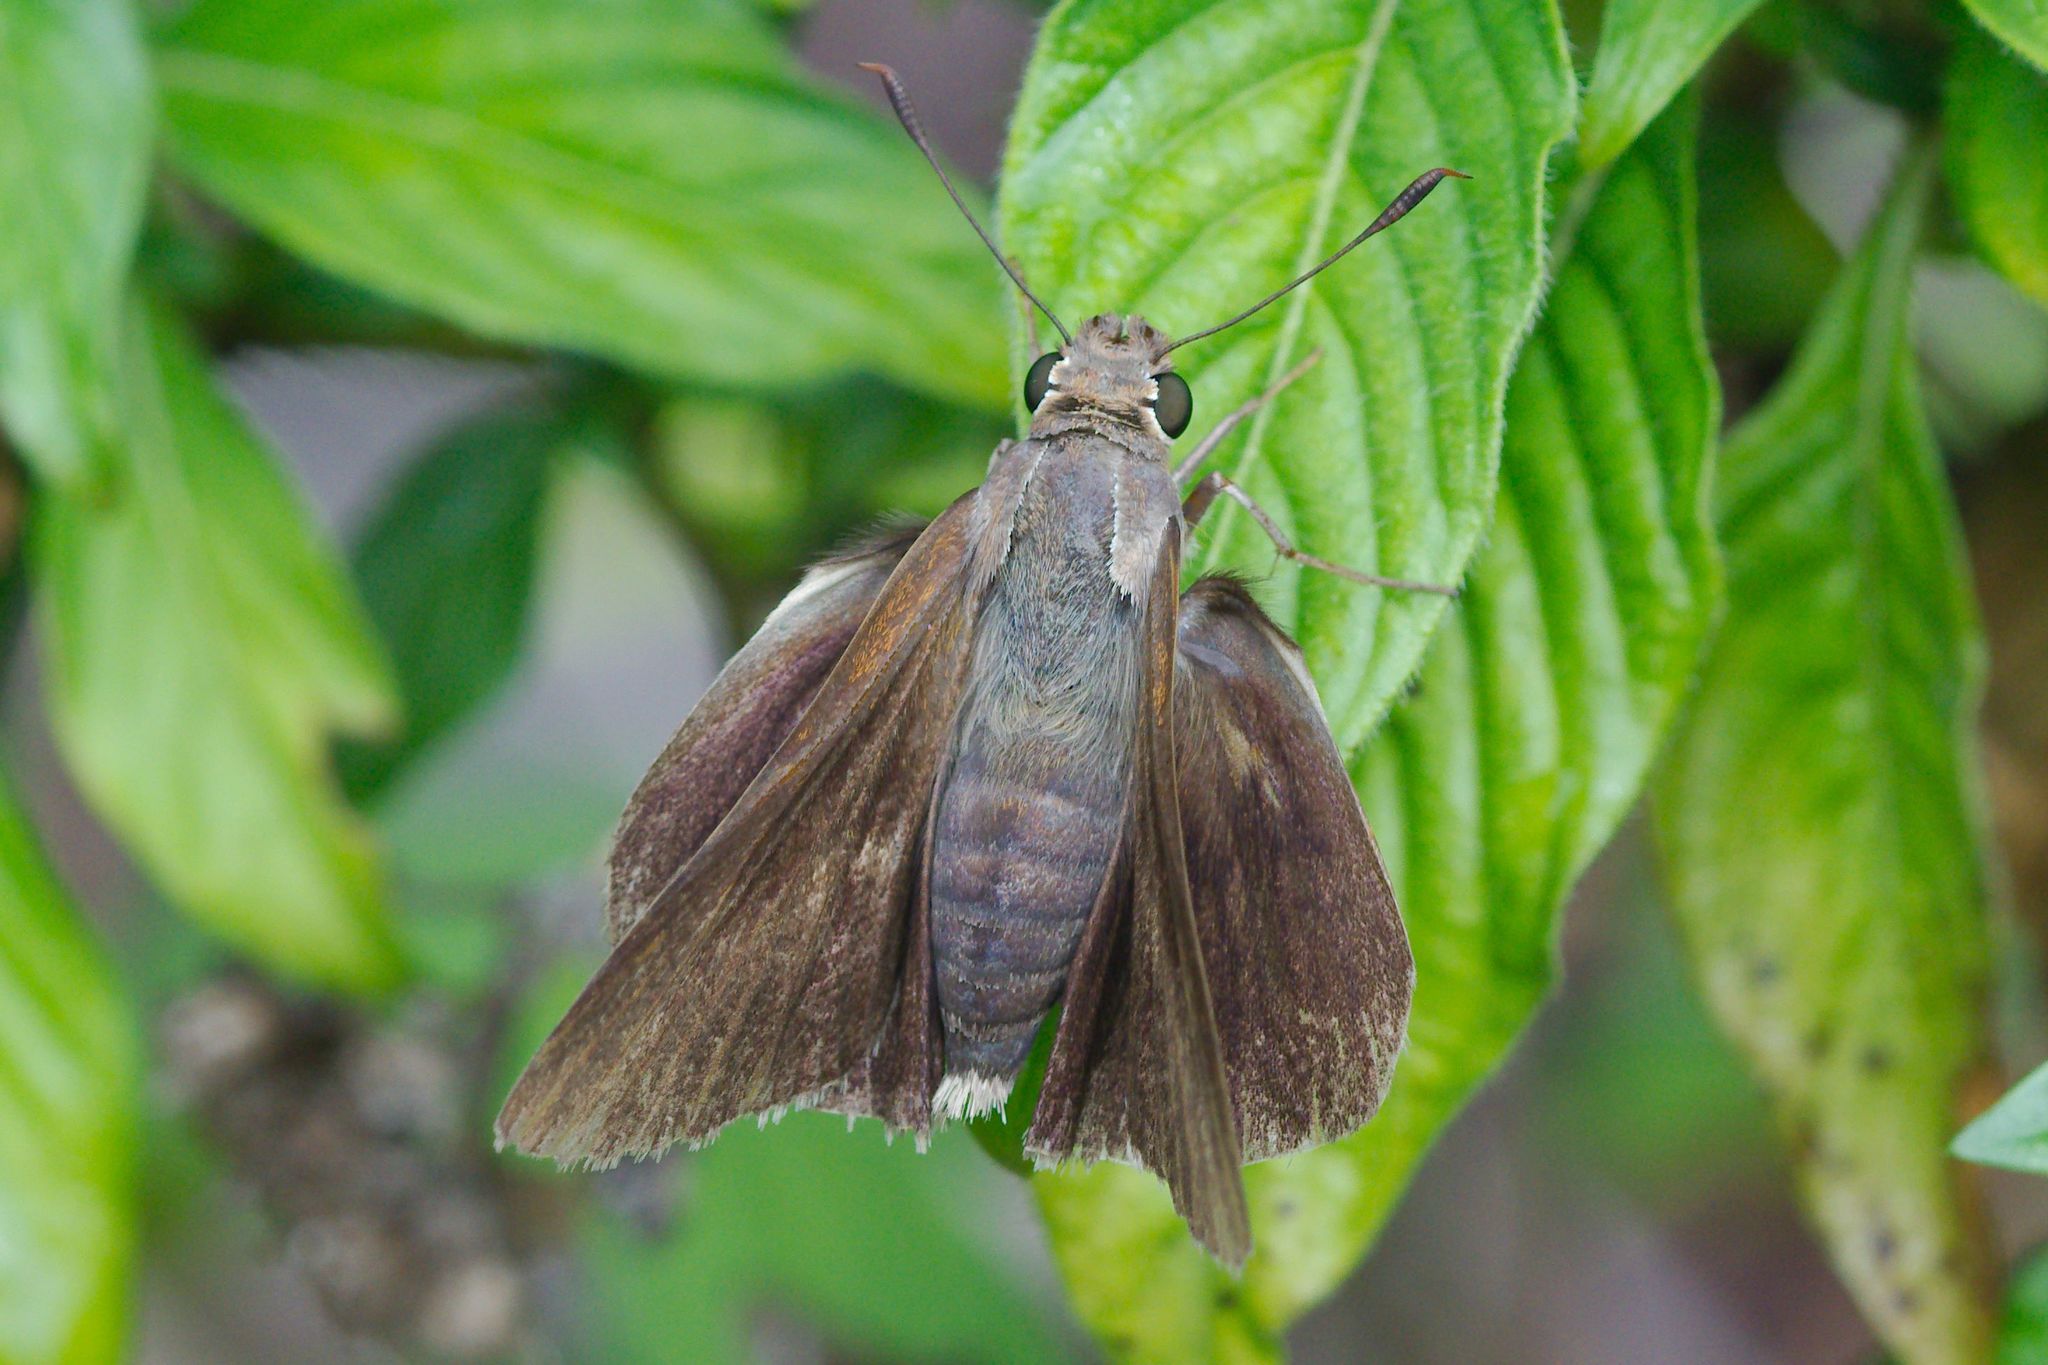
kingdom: Animalia
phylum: Arthropoda
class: Insecta
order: Lepidoptera
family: Hesperiidae
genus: Asbolis
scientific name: Asbolis capucinus
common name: Monk skipper
